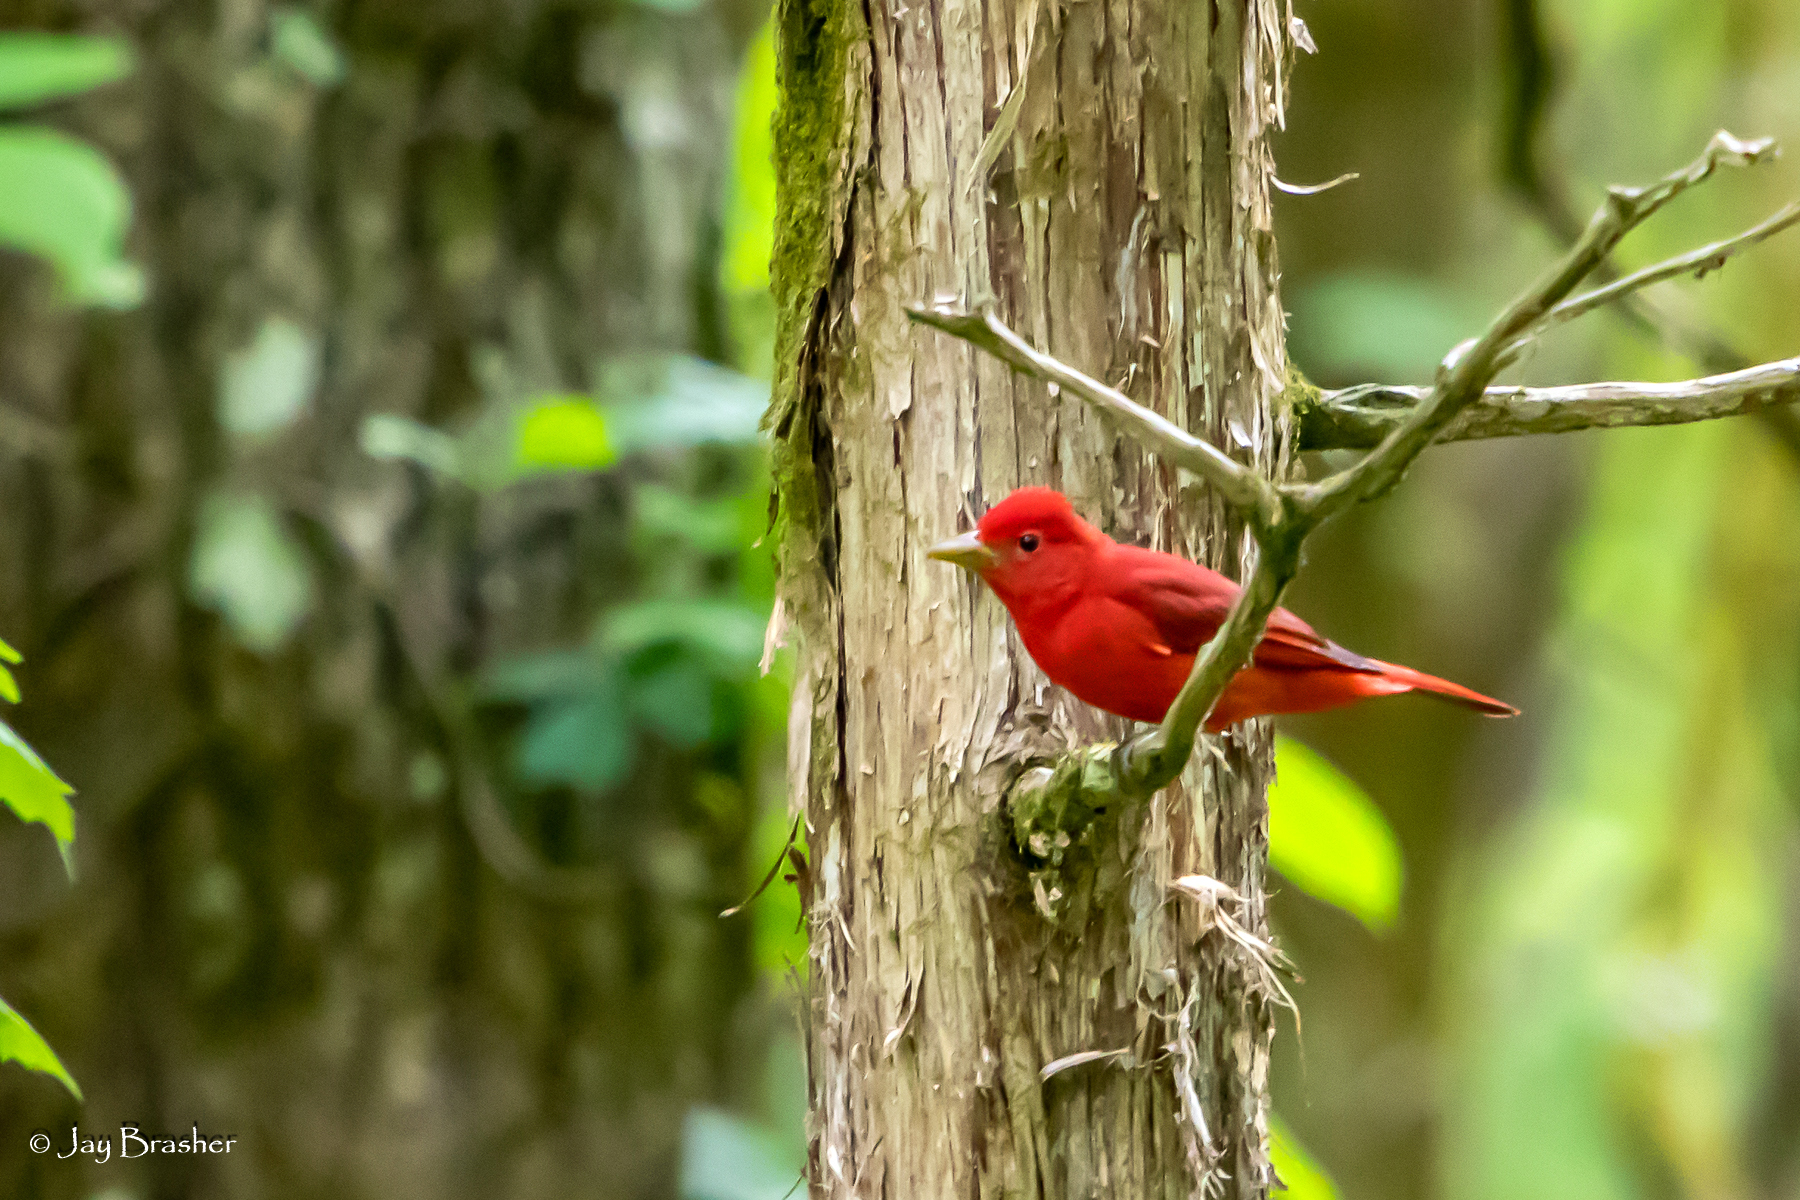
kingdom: Animalia
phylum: Chordata
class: Aves
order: Passeriformes
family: Cardinalidae
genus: Piranga
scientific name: Piranga rubra
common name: Summer tanager
